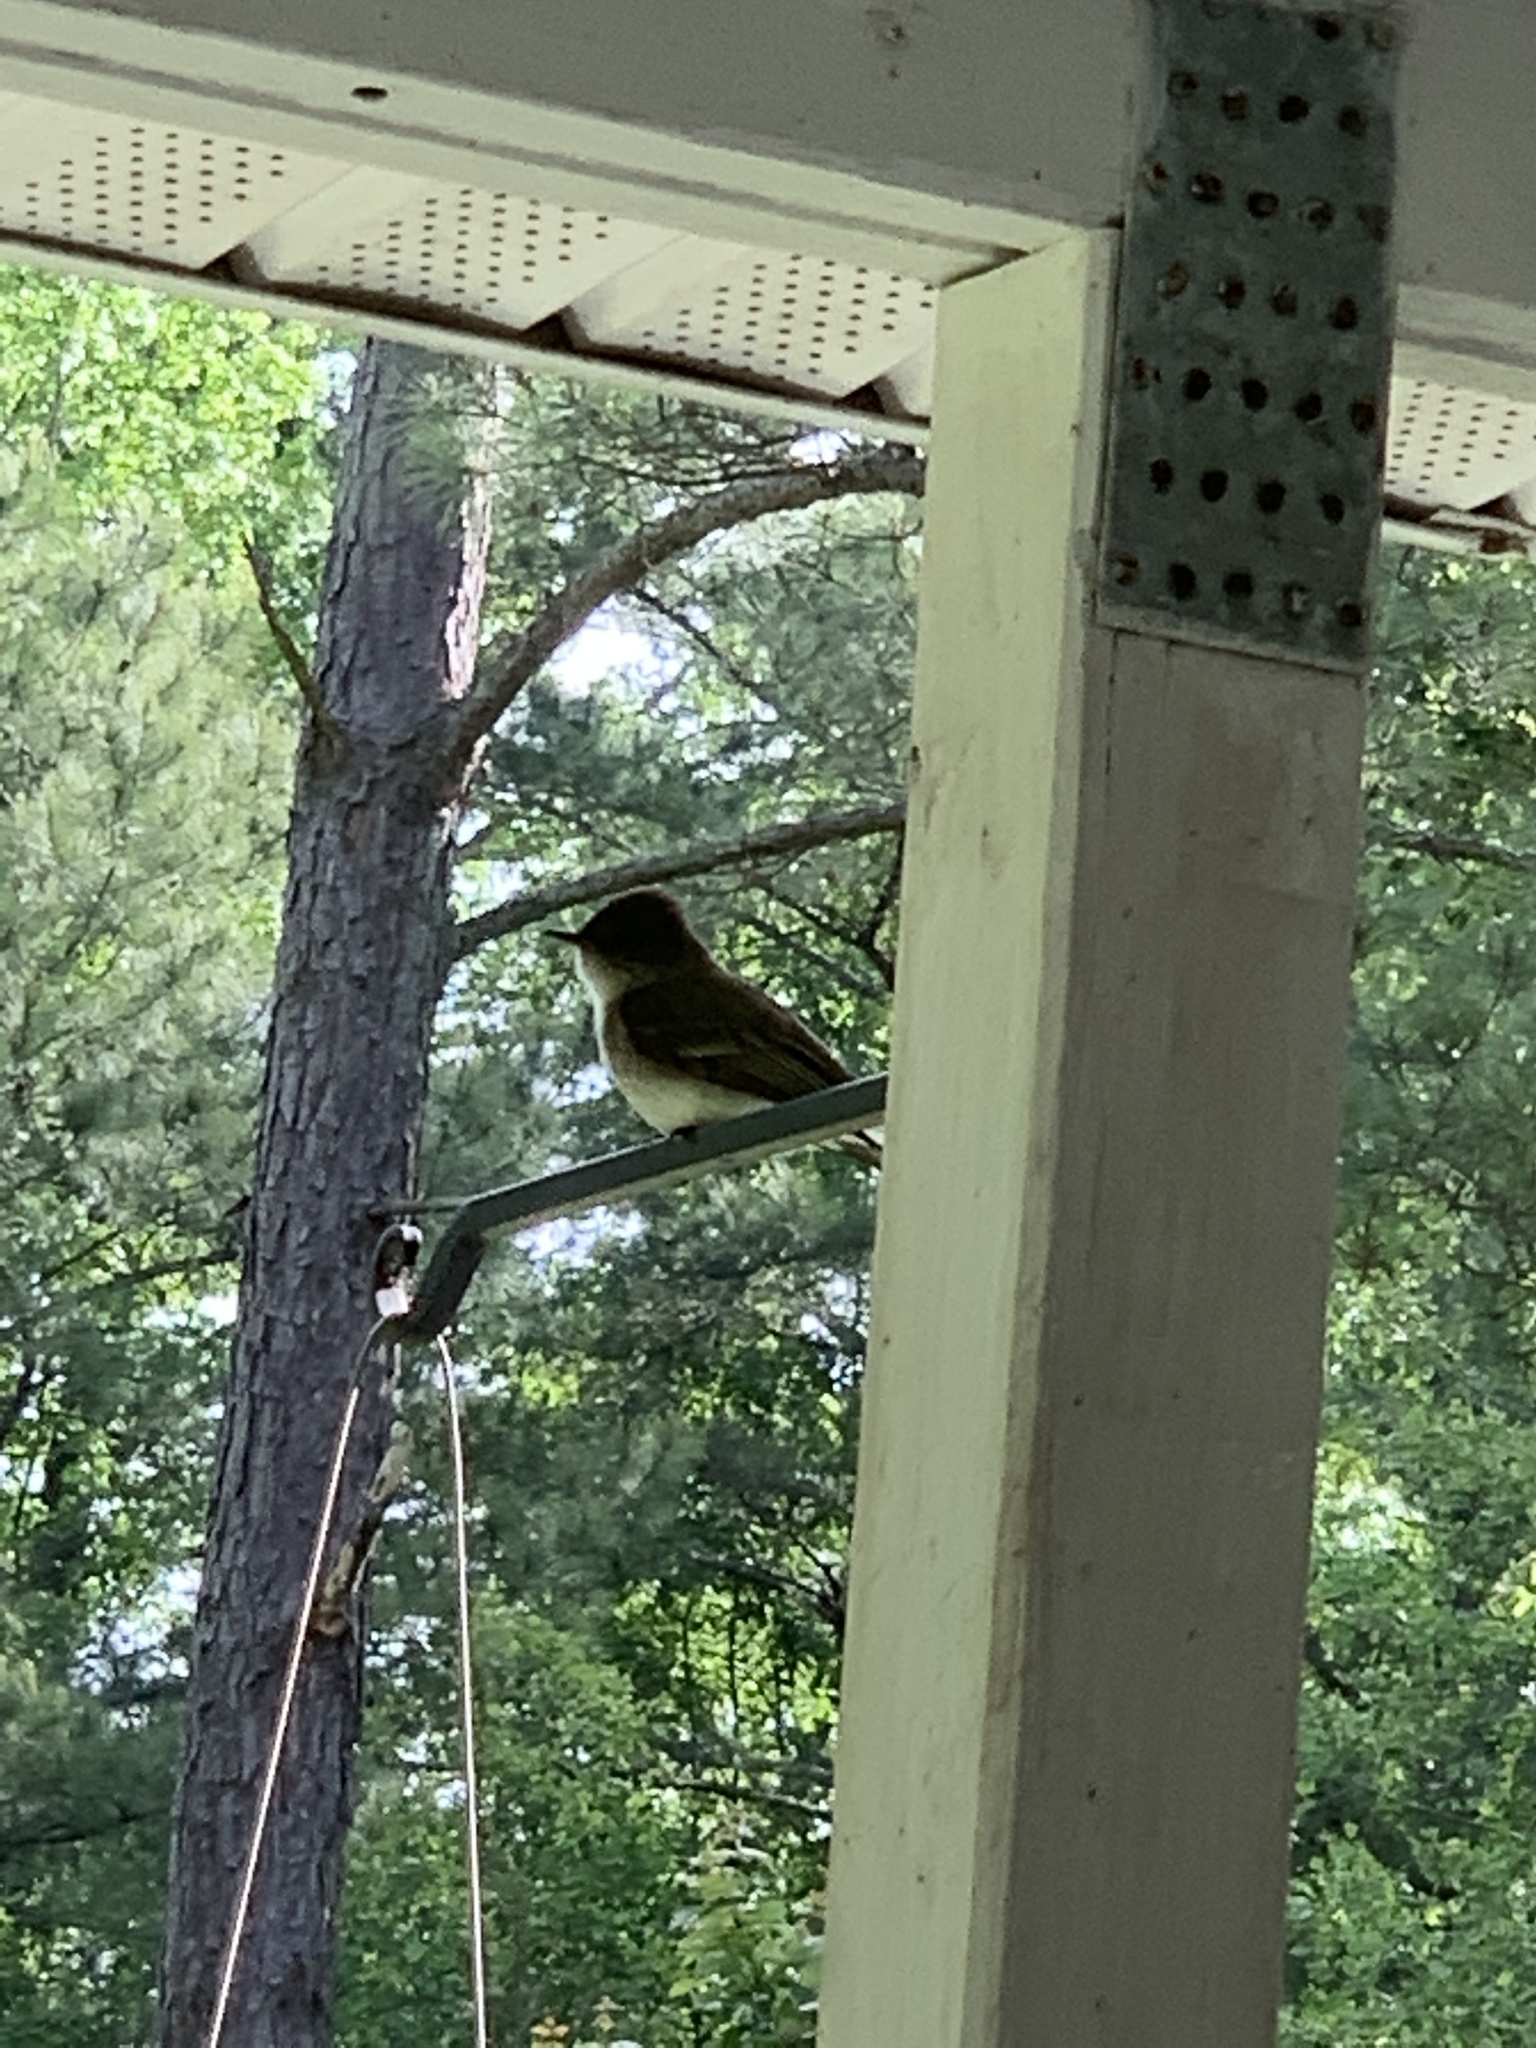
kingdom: Animalia
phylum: Chordata
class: Aves
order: Passeriformes
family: Tyrannidae
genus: Sayornis
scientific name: Sayornis phoebe
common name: Eastern phoebe
